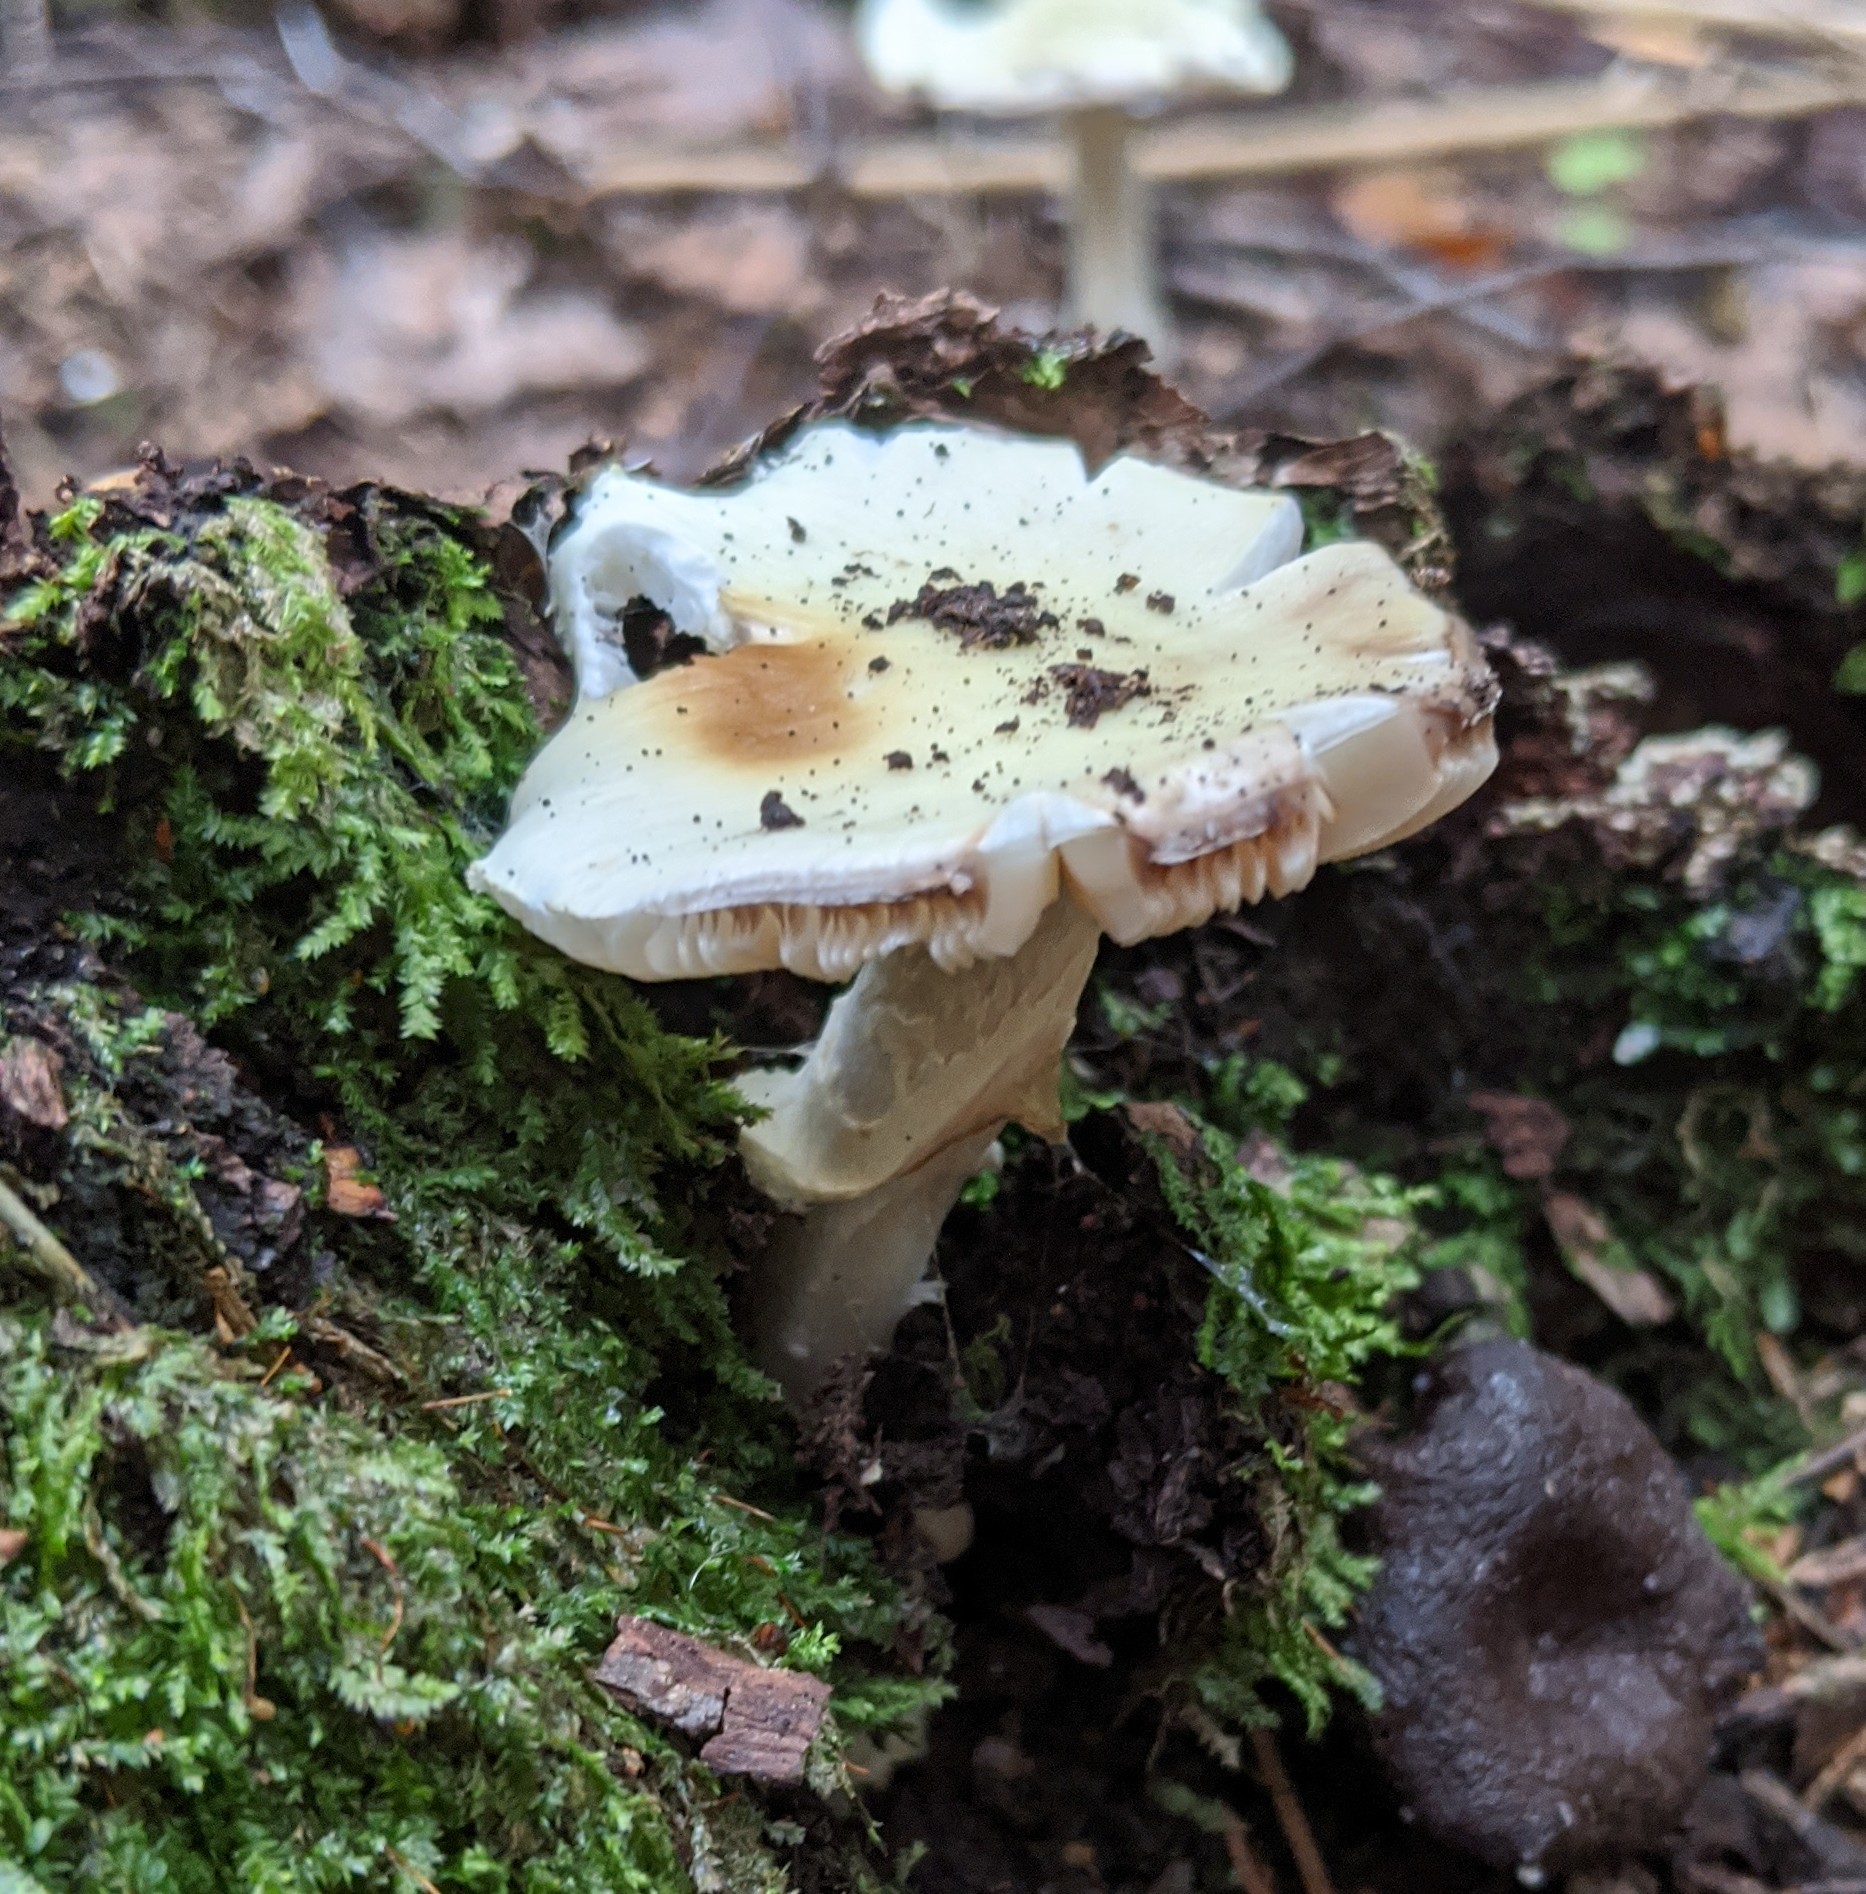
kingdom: Fungi
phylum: Basidiomycota
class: Agaricomycetes
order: Agaricales
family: Amanitaceae
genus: Amanita
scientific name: Amanita citrina
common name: False death-cap
